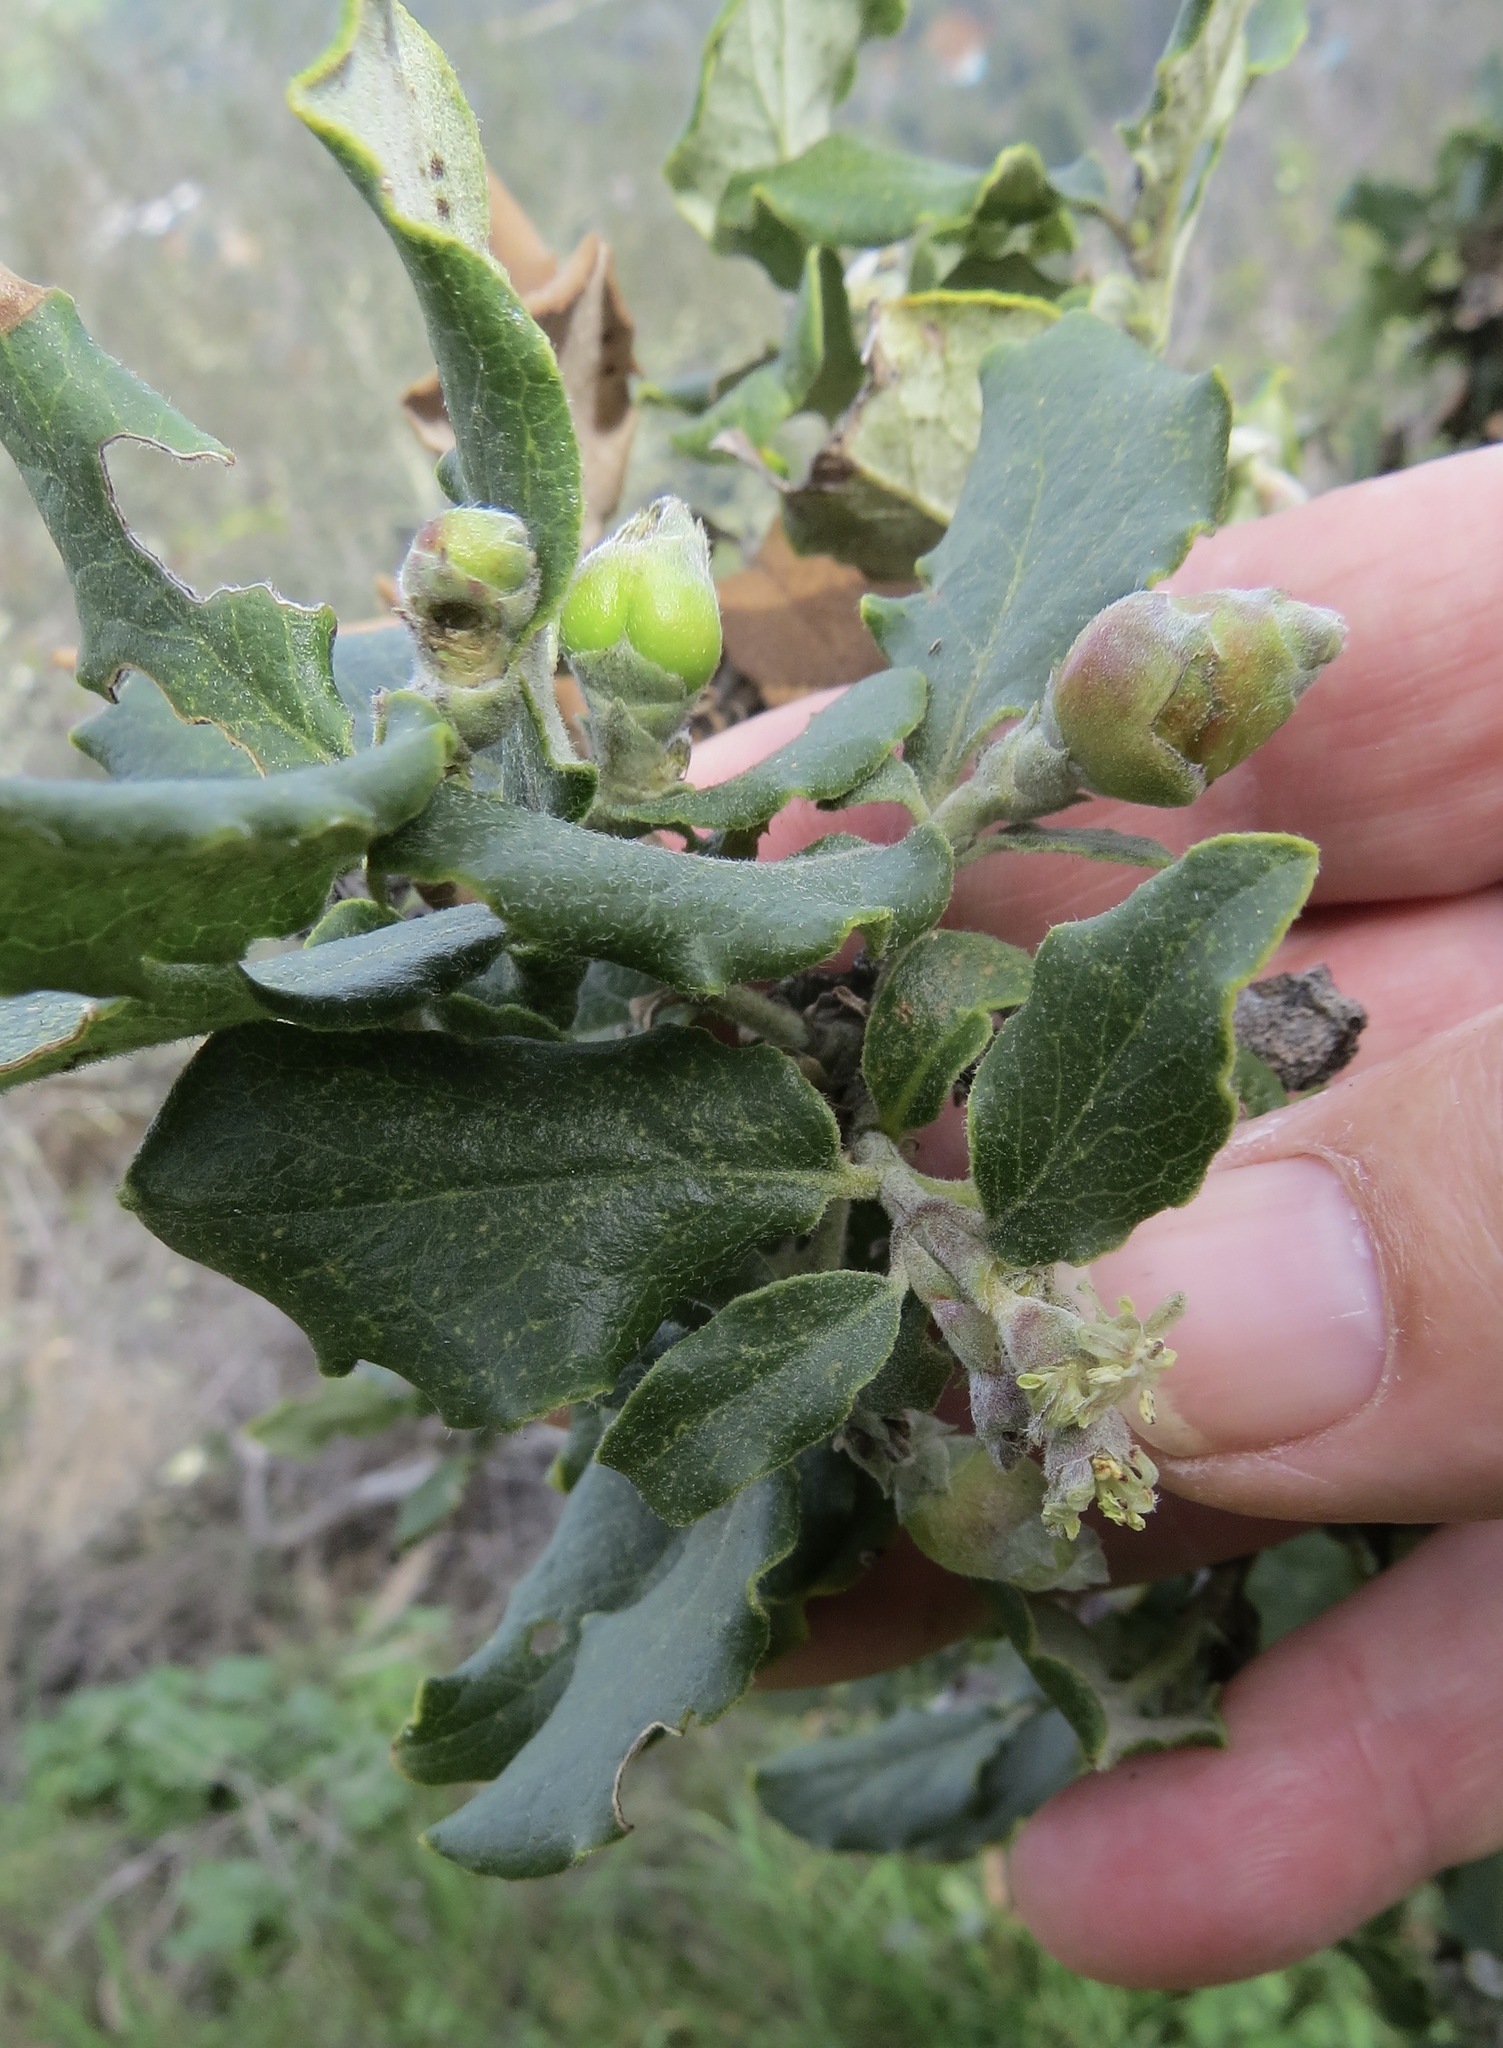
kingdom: Animalia
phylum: Arthropoda
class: Insecta
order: Diptera
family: Cecidomyiidae
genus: Asphondylia
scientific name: Asphondylia garryae
